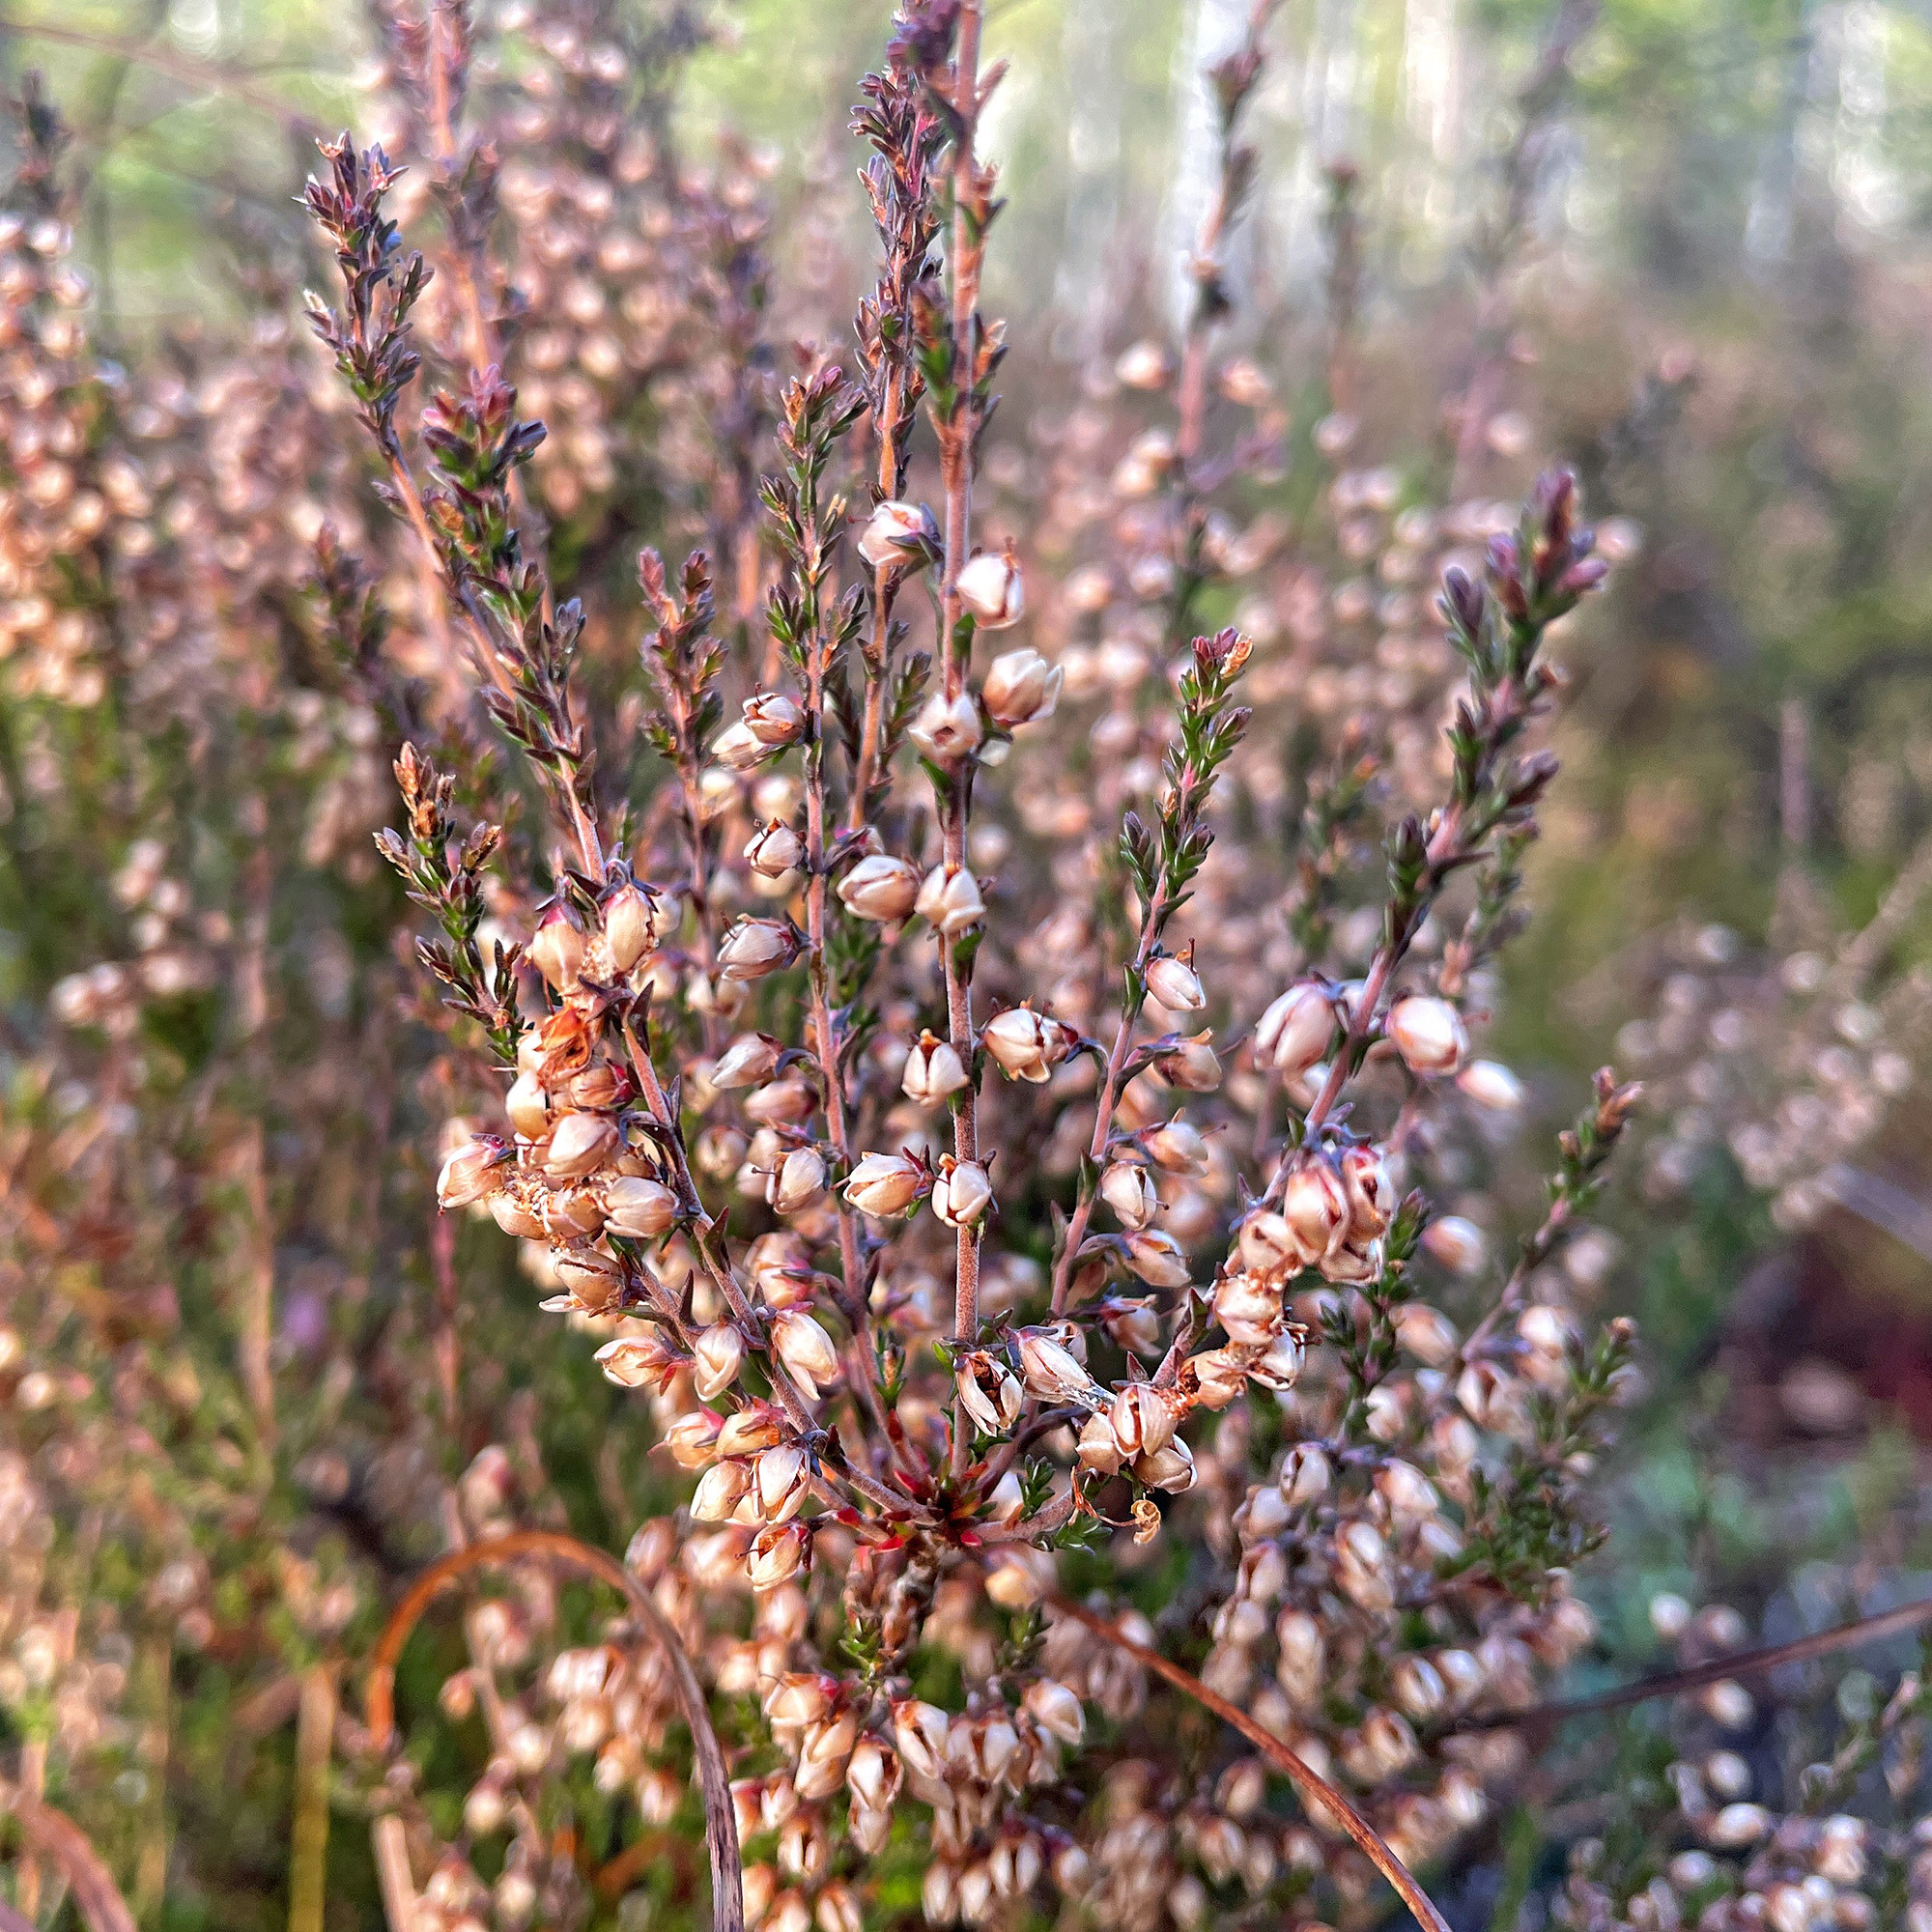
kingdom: Plantae
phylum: Tracheophyta
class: Magnoliopsida
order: Ericales
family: Ericaceae
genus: Calluna
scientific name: Calluna vulgaris
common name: Heather
